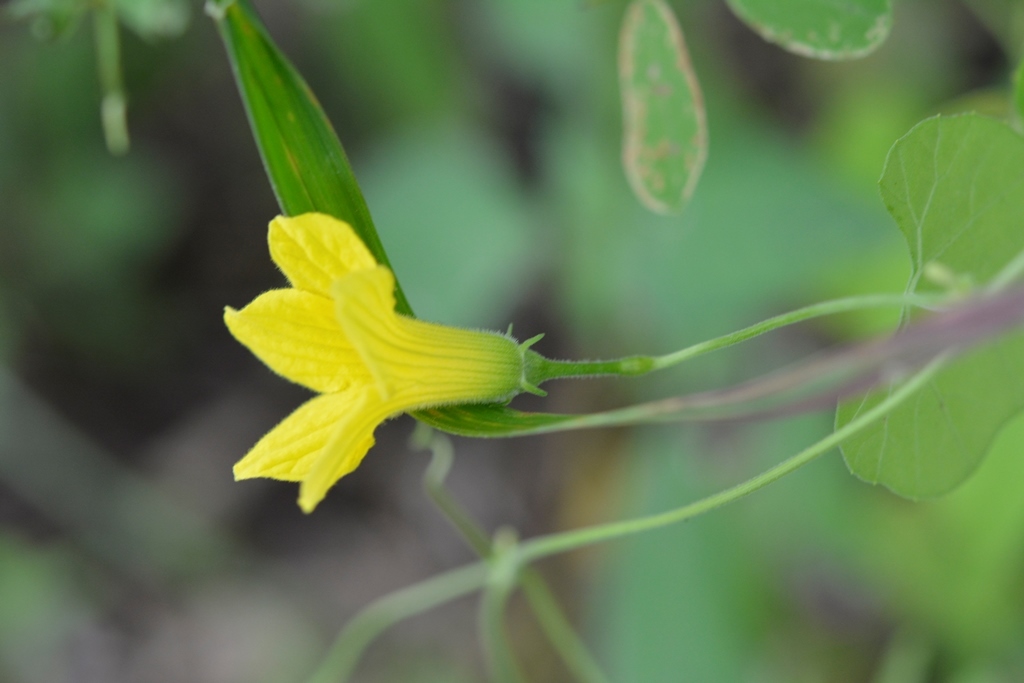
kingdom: Plantae
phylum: Tracheophyta
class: Magnoliopsida
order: Cucurbitales
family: Cucurbitaceae
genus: Schizocarpum
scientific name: Schizocarpum longisepalum
